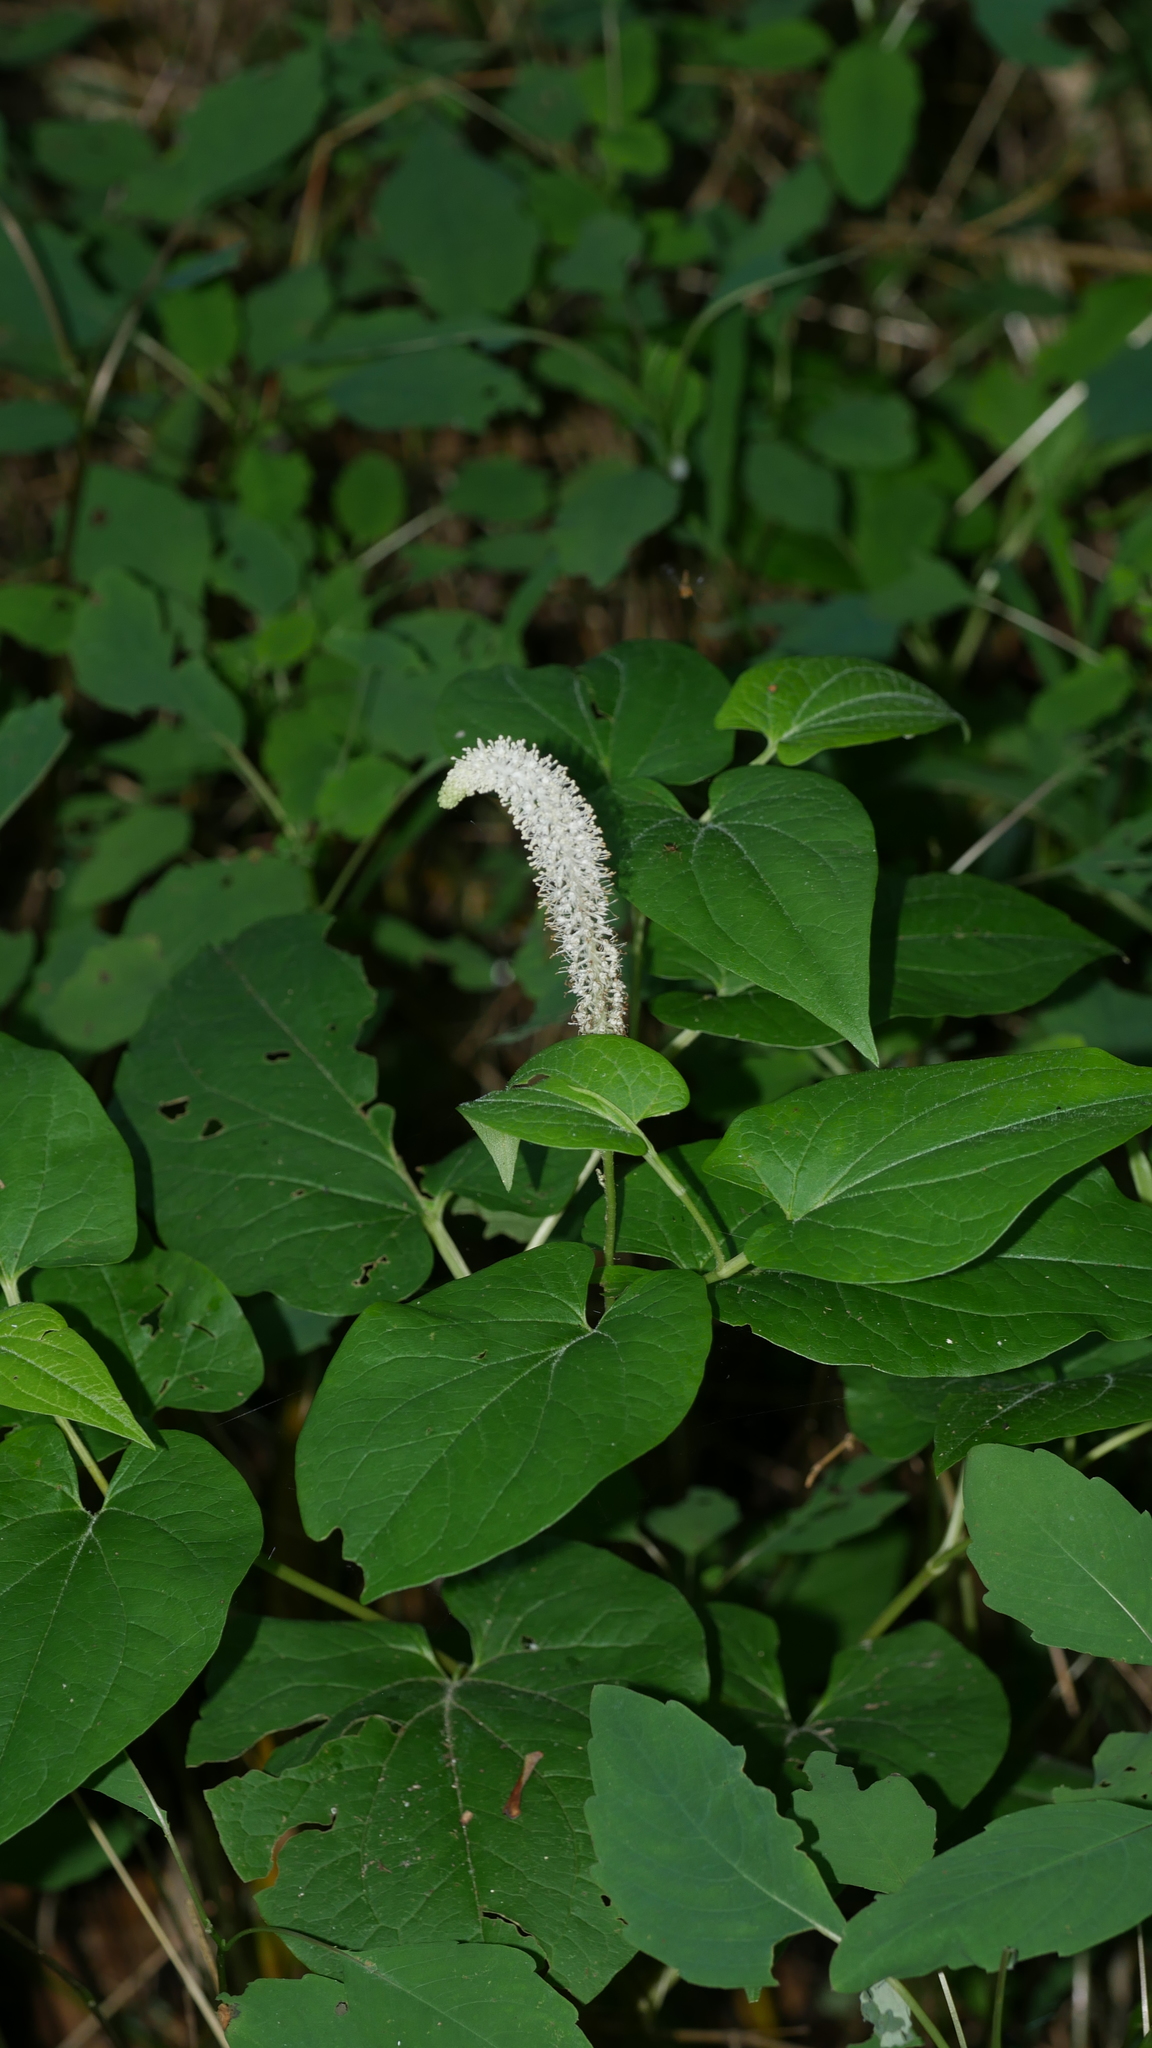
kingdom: Plantae
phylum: Tracheophyta
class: Magnoliopsida
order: Piperales
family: Saururaceae
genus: Saururus
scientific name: Saururus cernuus
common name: Lizard's-tail
